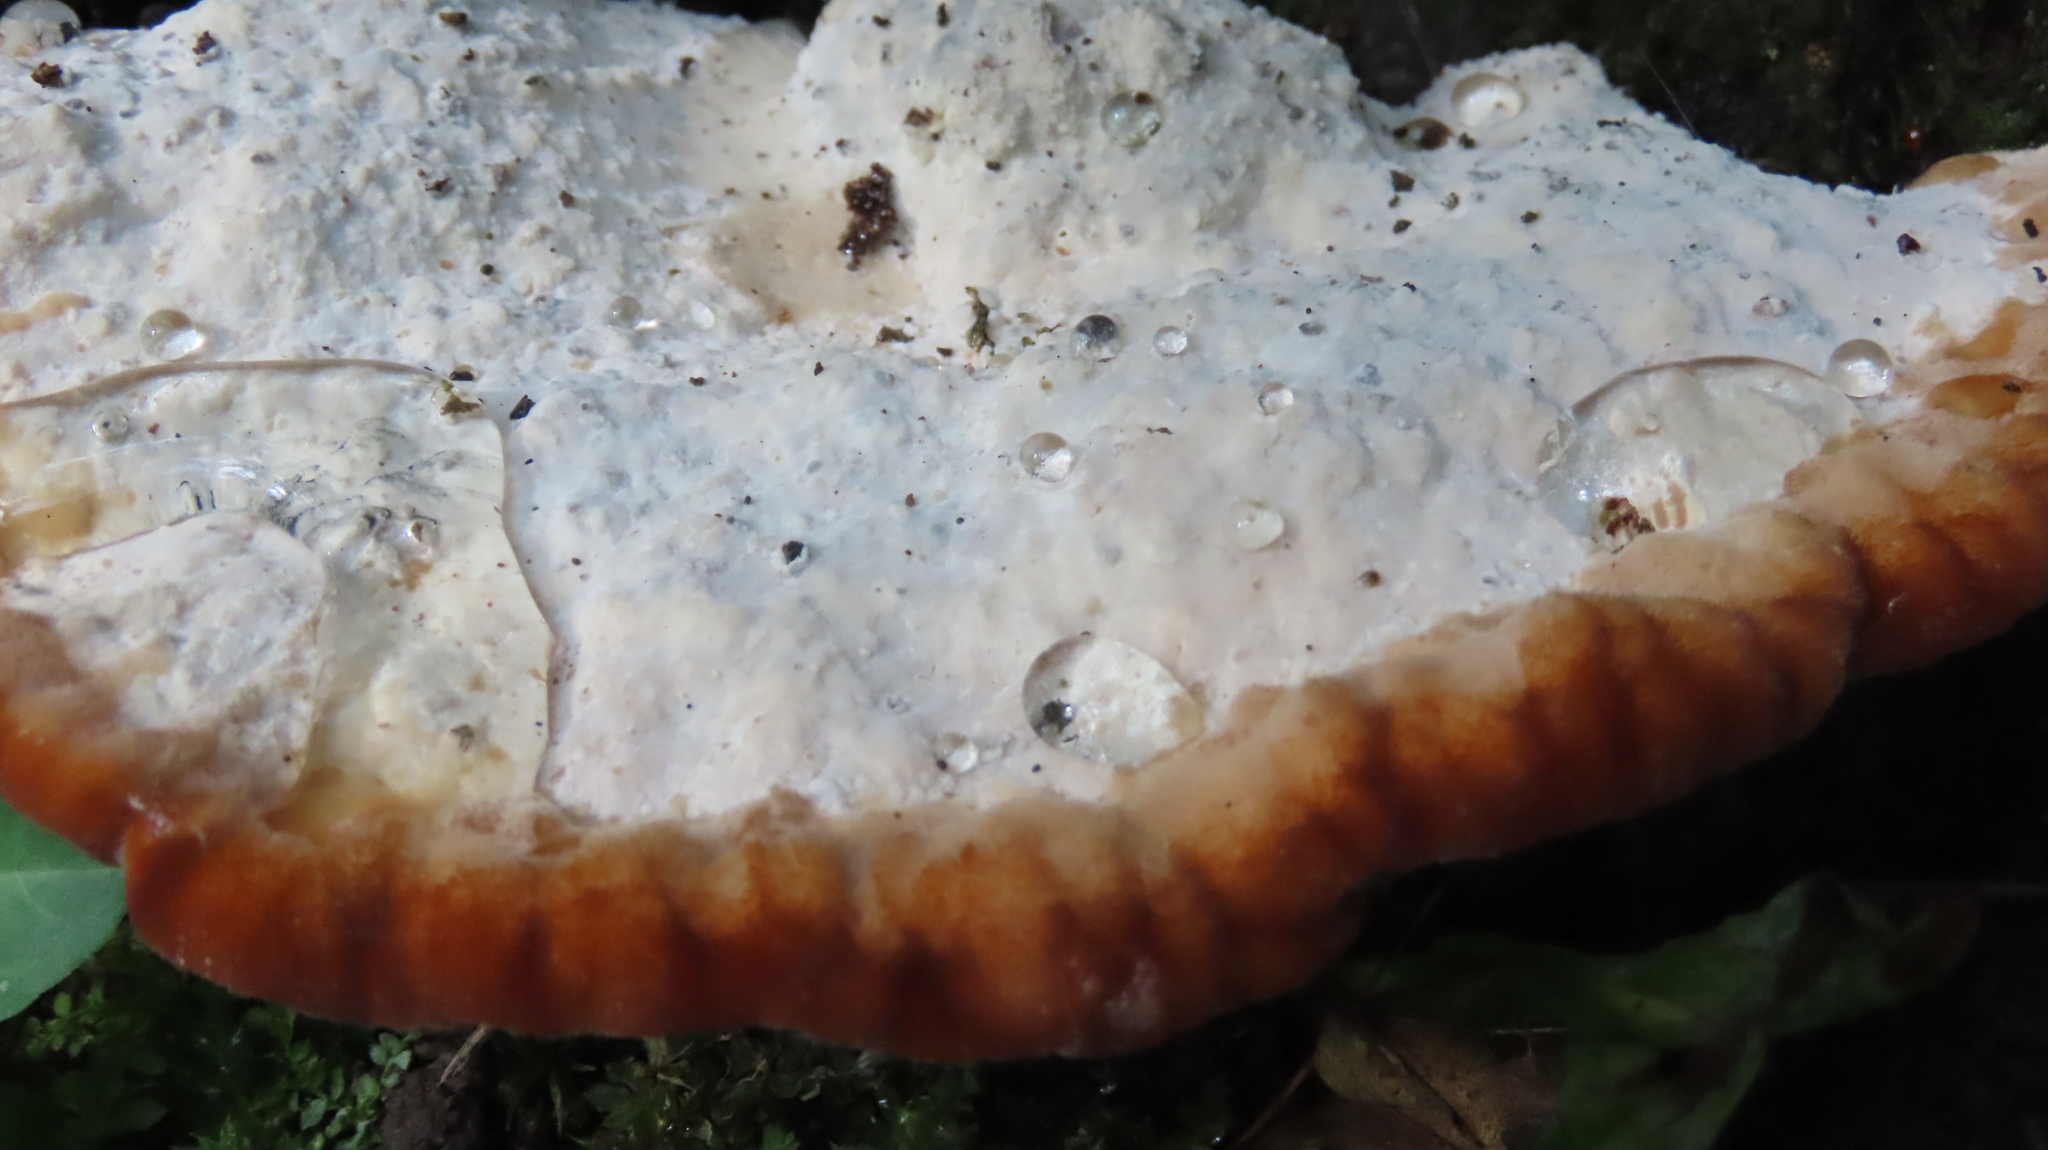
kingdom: Fungi
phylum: Basidiomycota
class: Agaricomycetes
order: Polyporales
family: Fomitopsidaceae
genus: Niveoporofomes
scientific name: Niveoporofomes spraguei
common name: Green cheese polypore
